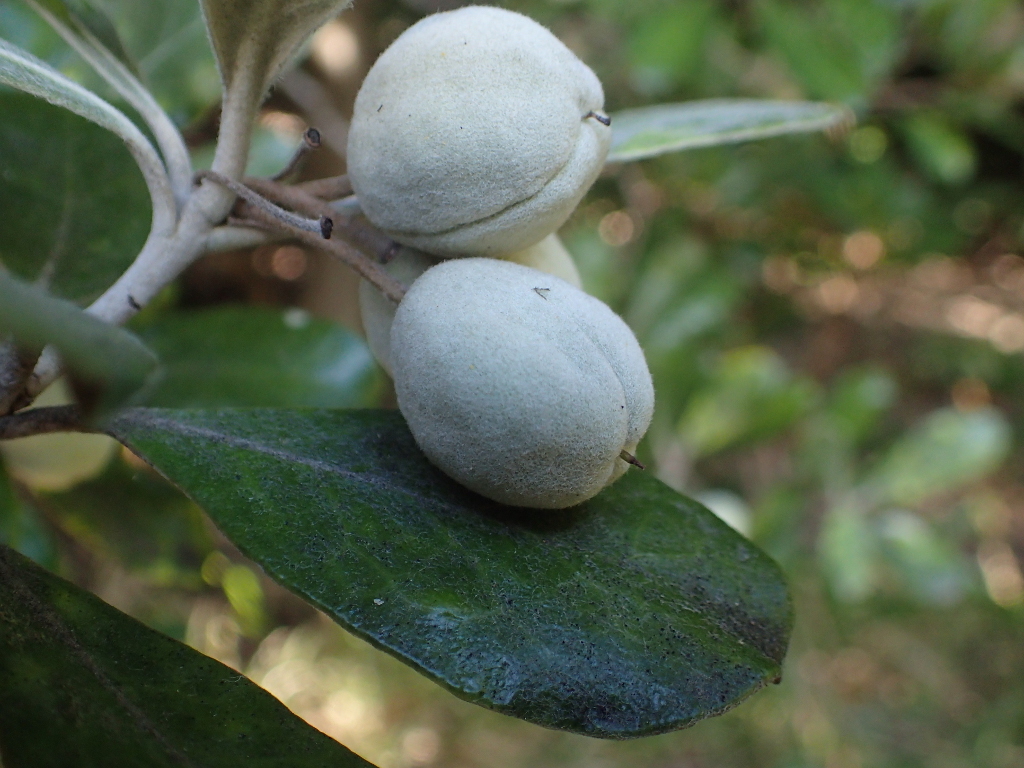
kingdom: Plantae
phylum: Tracheophyta
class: Magnoliopsida
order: Apiales
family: Pittosporaceae
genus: Pittosporum
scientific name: Pittosporum crassifolium
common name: Karo
